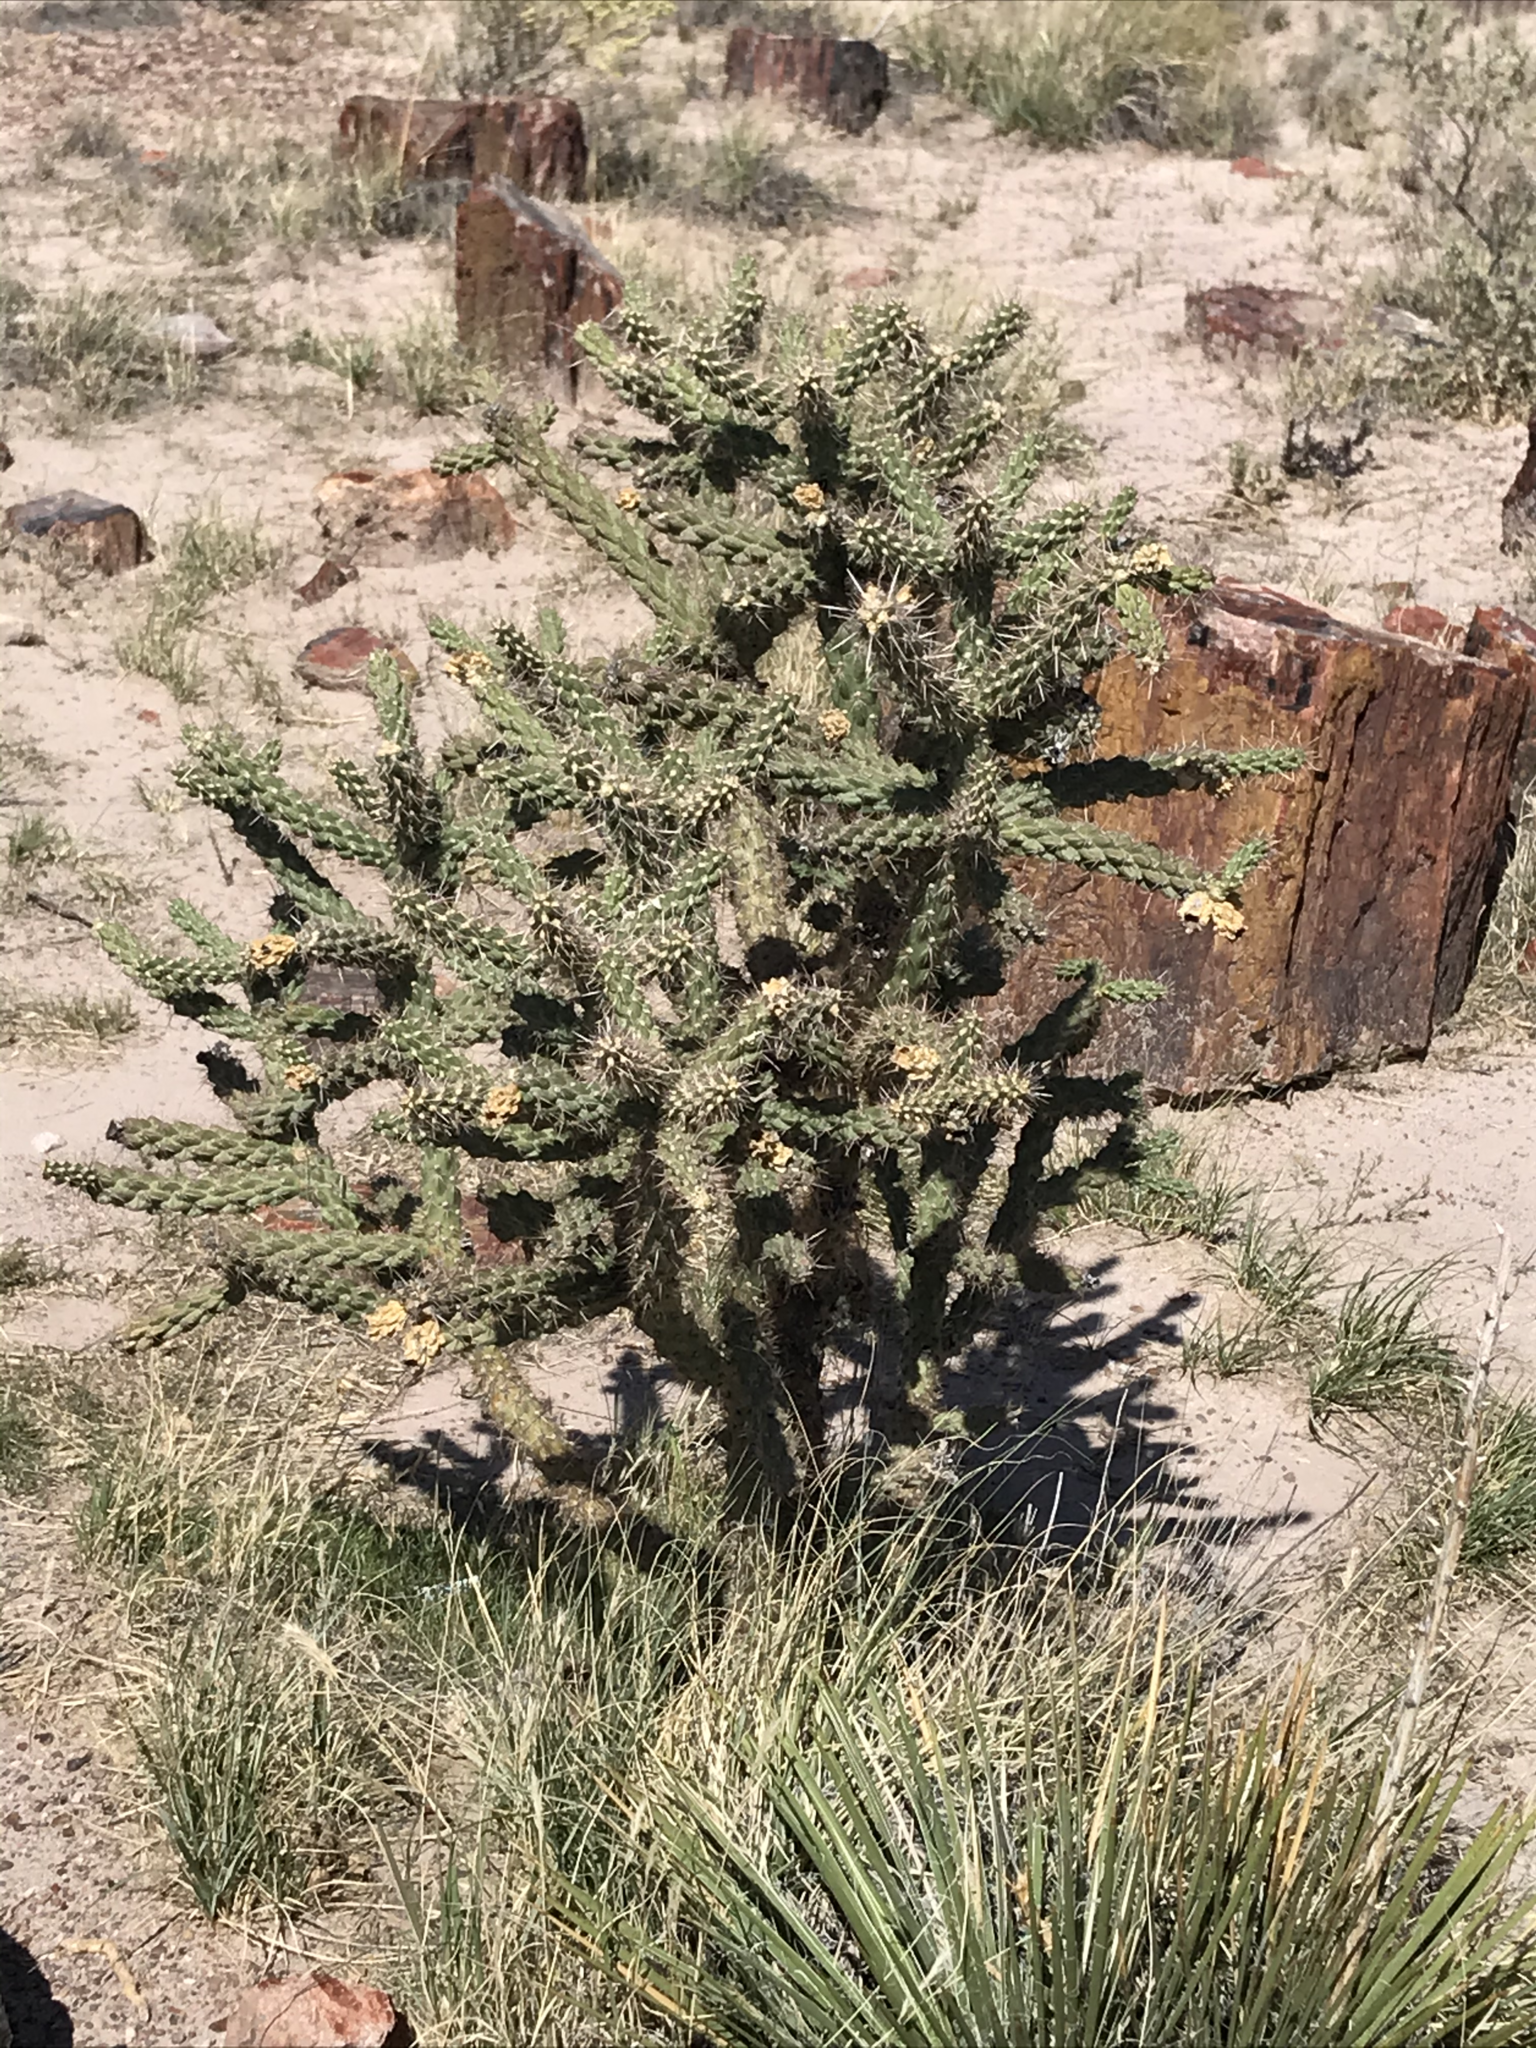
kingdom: Plantae
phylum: Tracheophyta
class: Magnoliopsida
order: Caryophyllales
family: Cactaceae
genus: Cylindropuntia
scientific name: Cylindropuntia imbricata
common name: Candelabrum cactus
